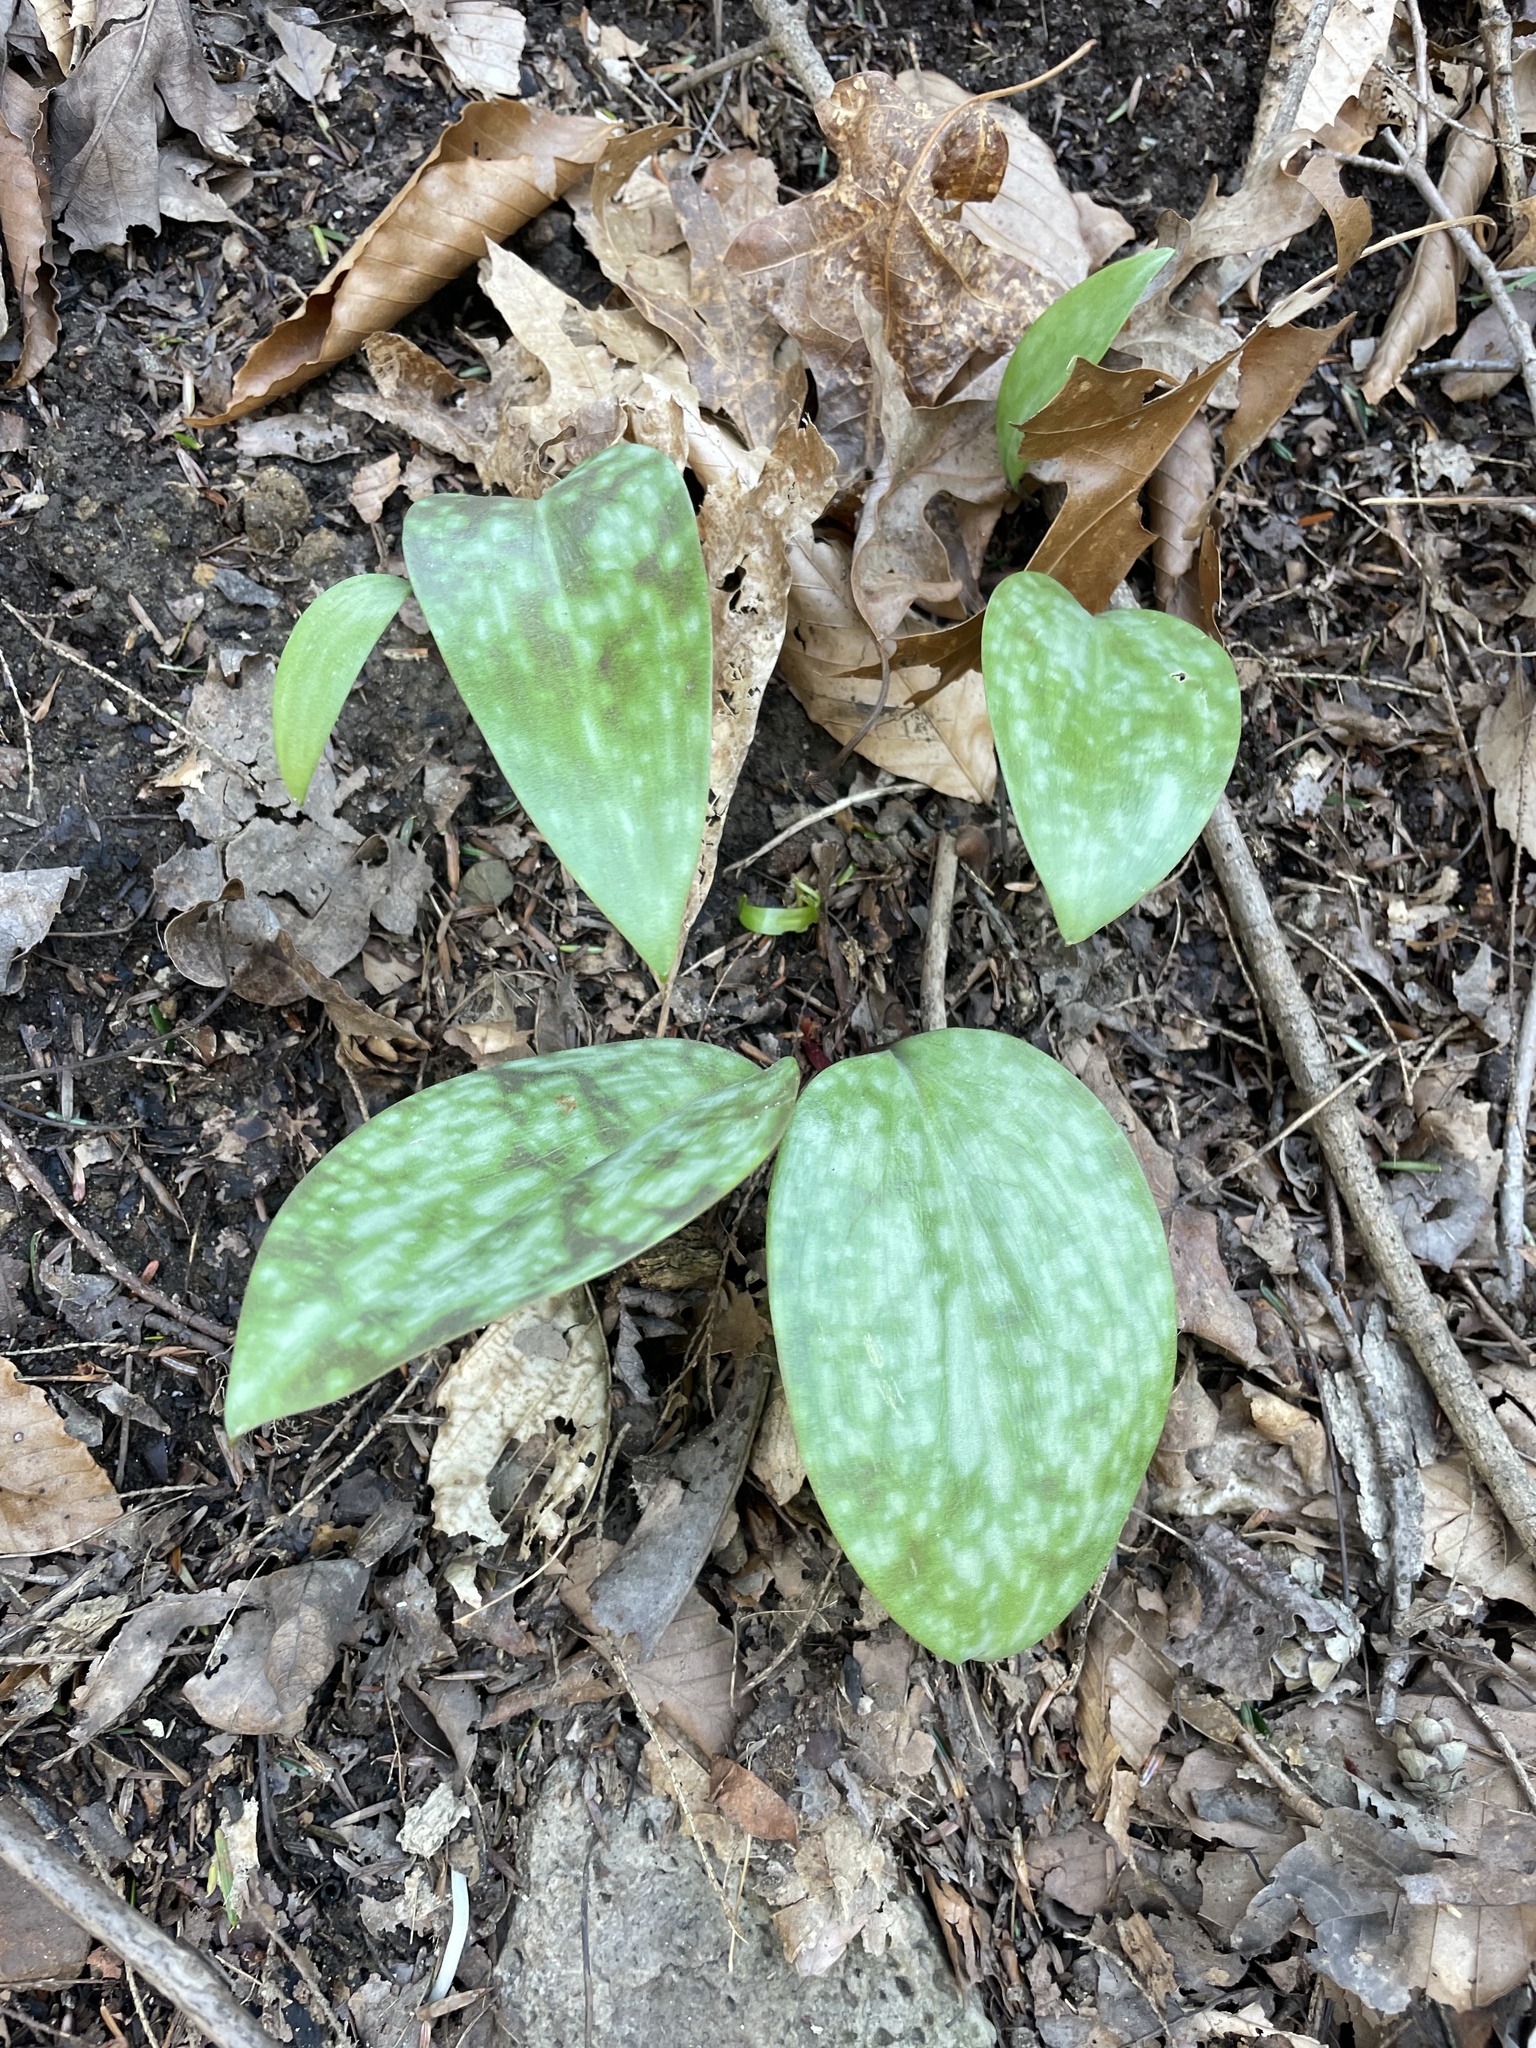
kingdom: Plantae
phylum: Tracheophyta
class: Liliopsida
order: Liliales
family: Liliaceae
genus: Erythronium
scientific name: Erythronium americanum
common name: Yellow adder's-tongue
